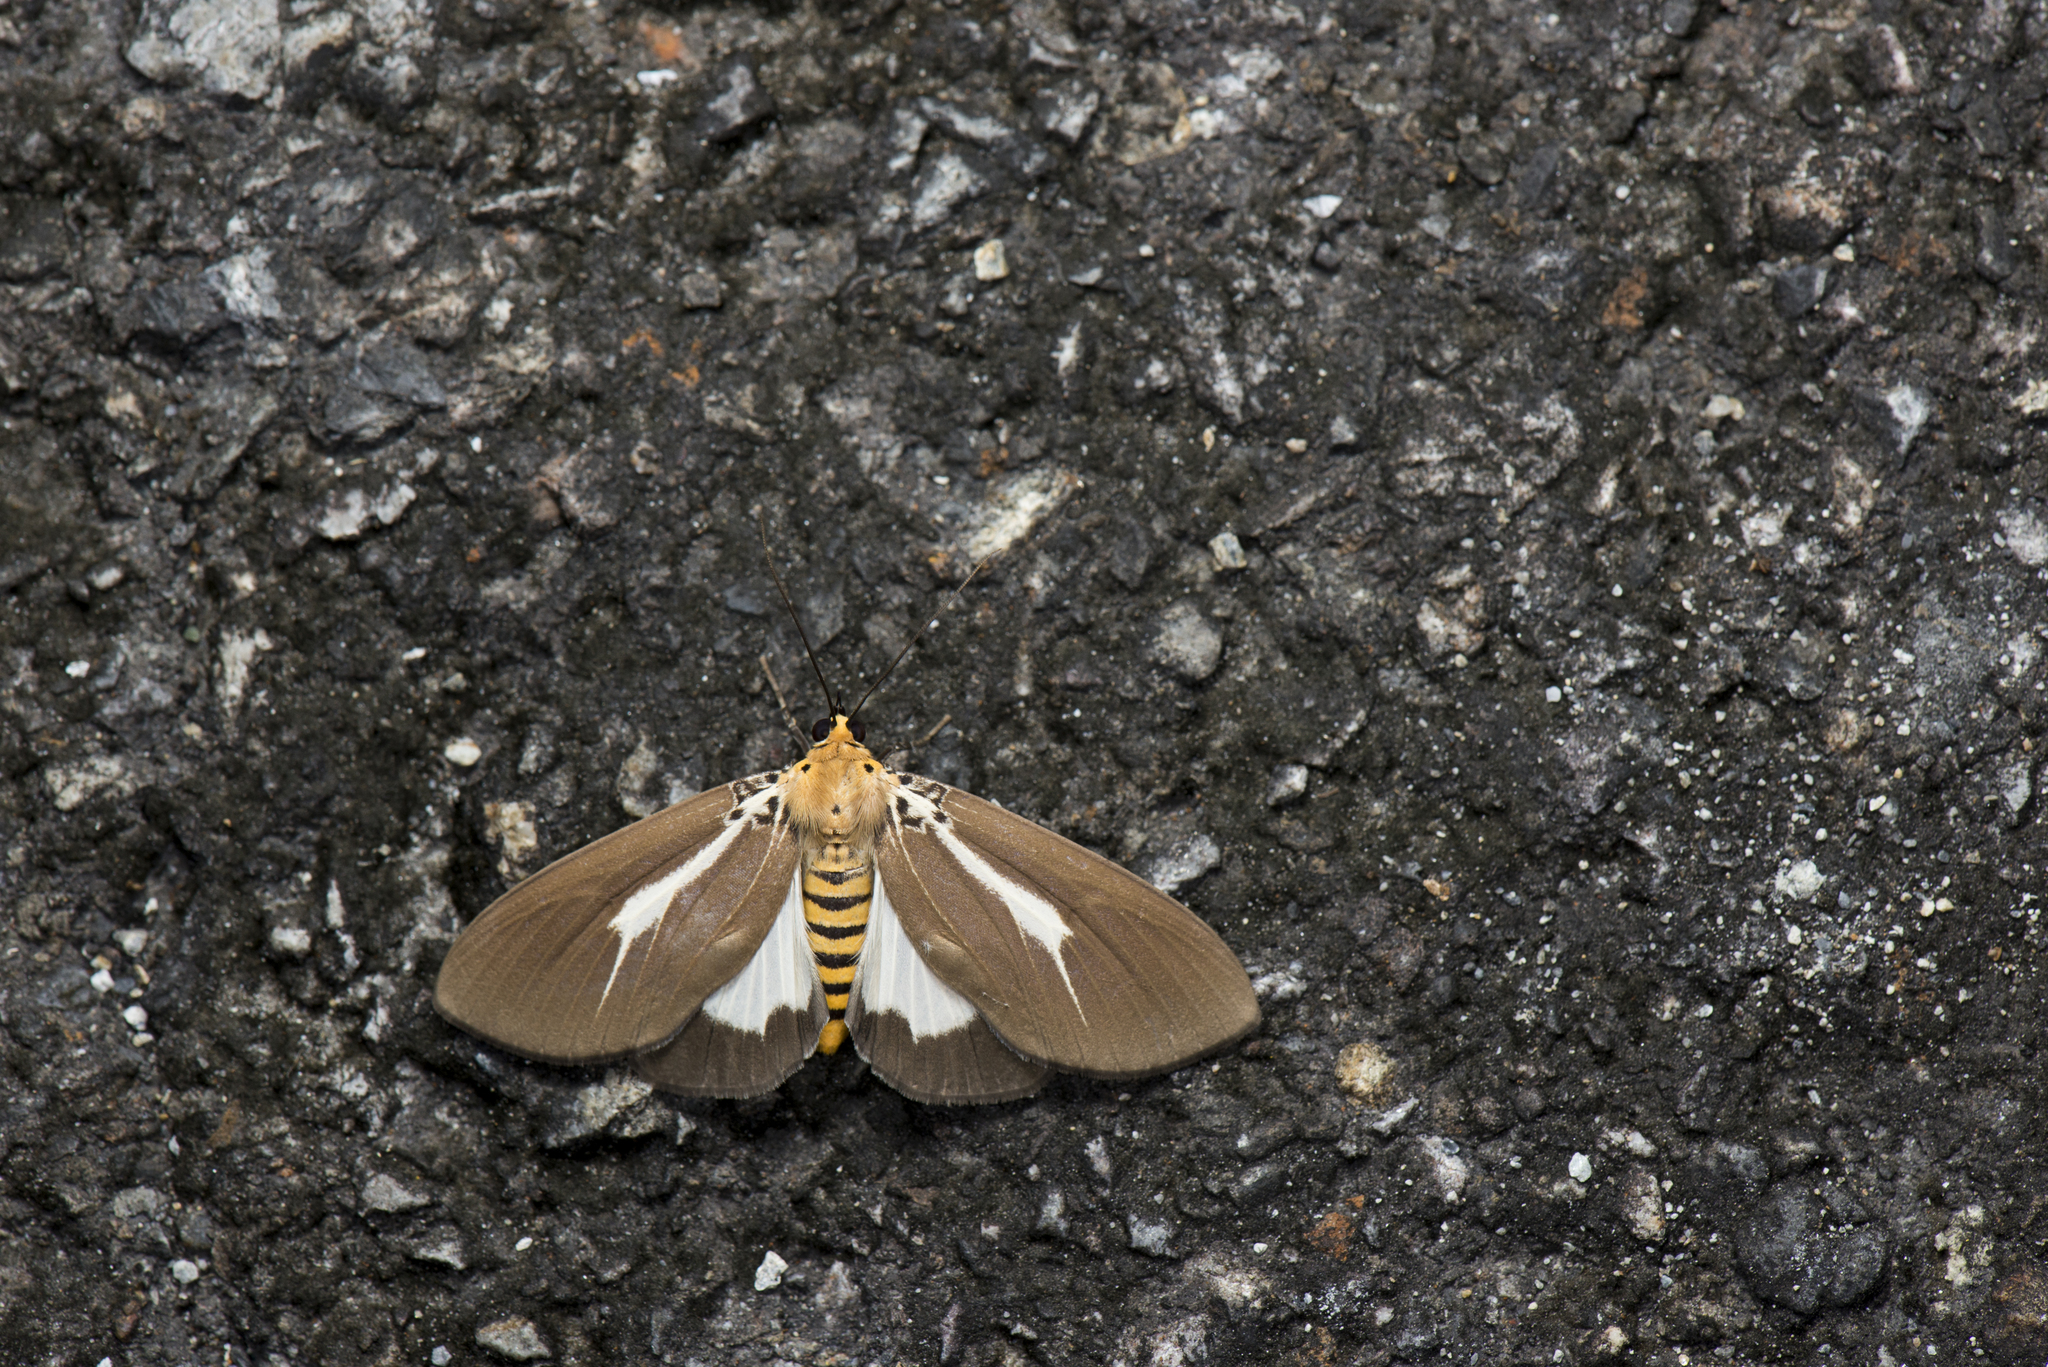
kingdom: Animalia
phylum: Arthropoda
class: Insecta
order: Lepidoptera
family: Erebidae
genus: Asota
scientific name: Asota heliconia
